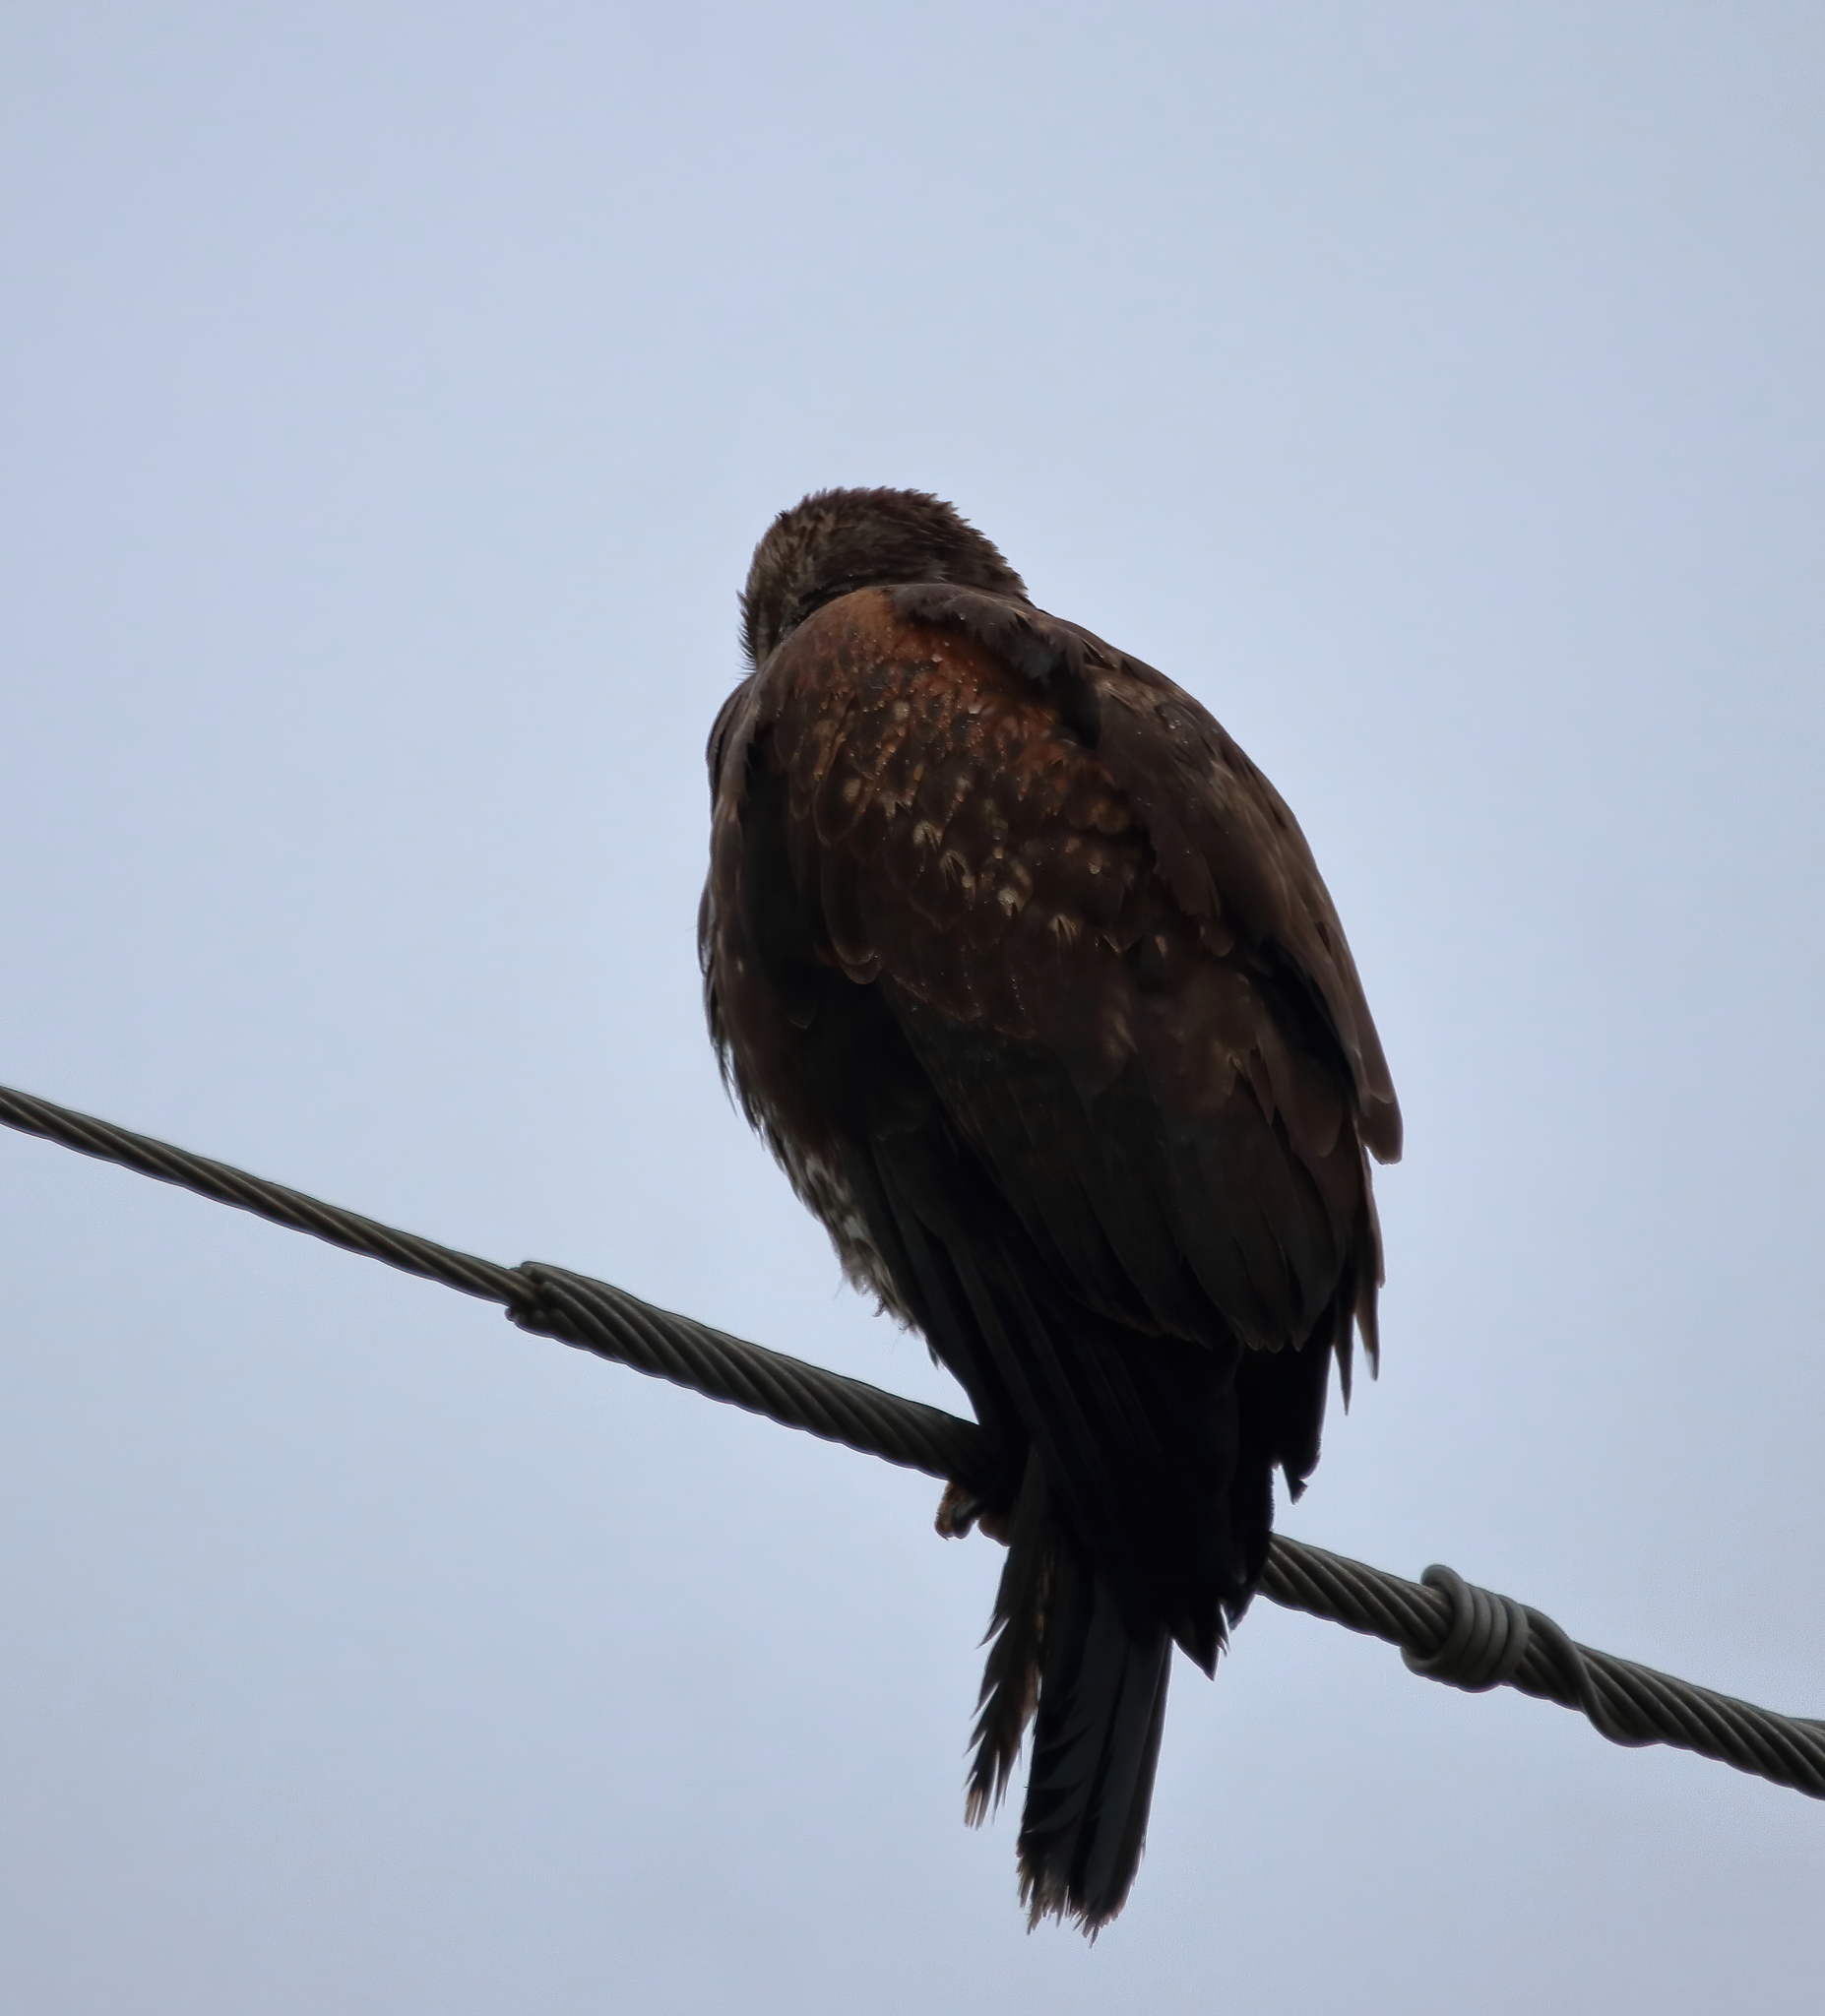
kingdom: Animalia
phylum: Chordata
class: Aves
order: Accipitriformes
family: Accipitridae
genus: Parabuteo
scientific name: Parabuteo unicinctus
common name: Harris's hawk
